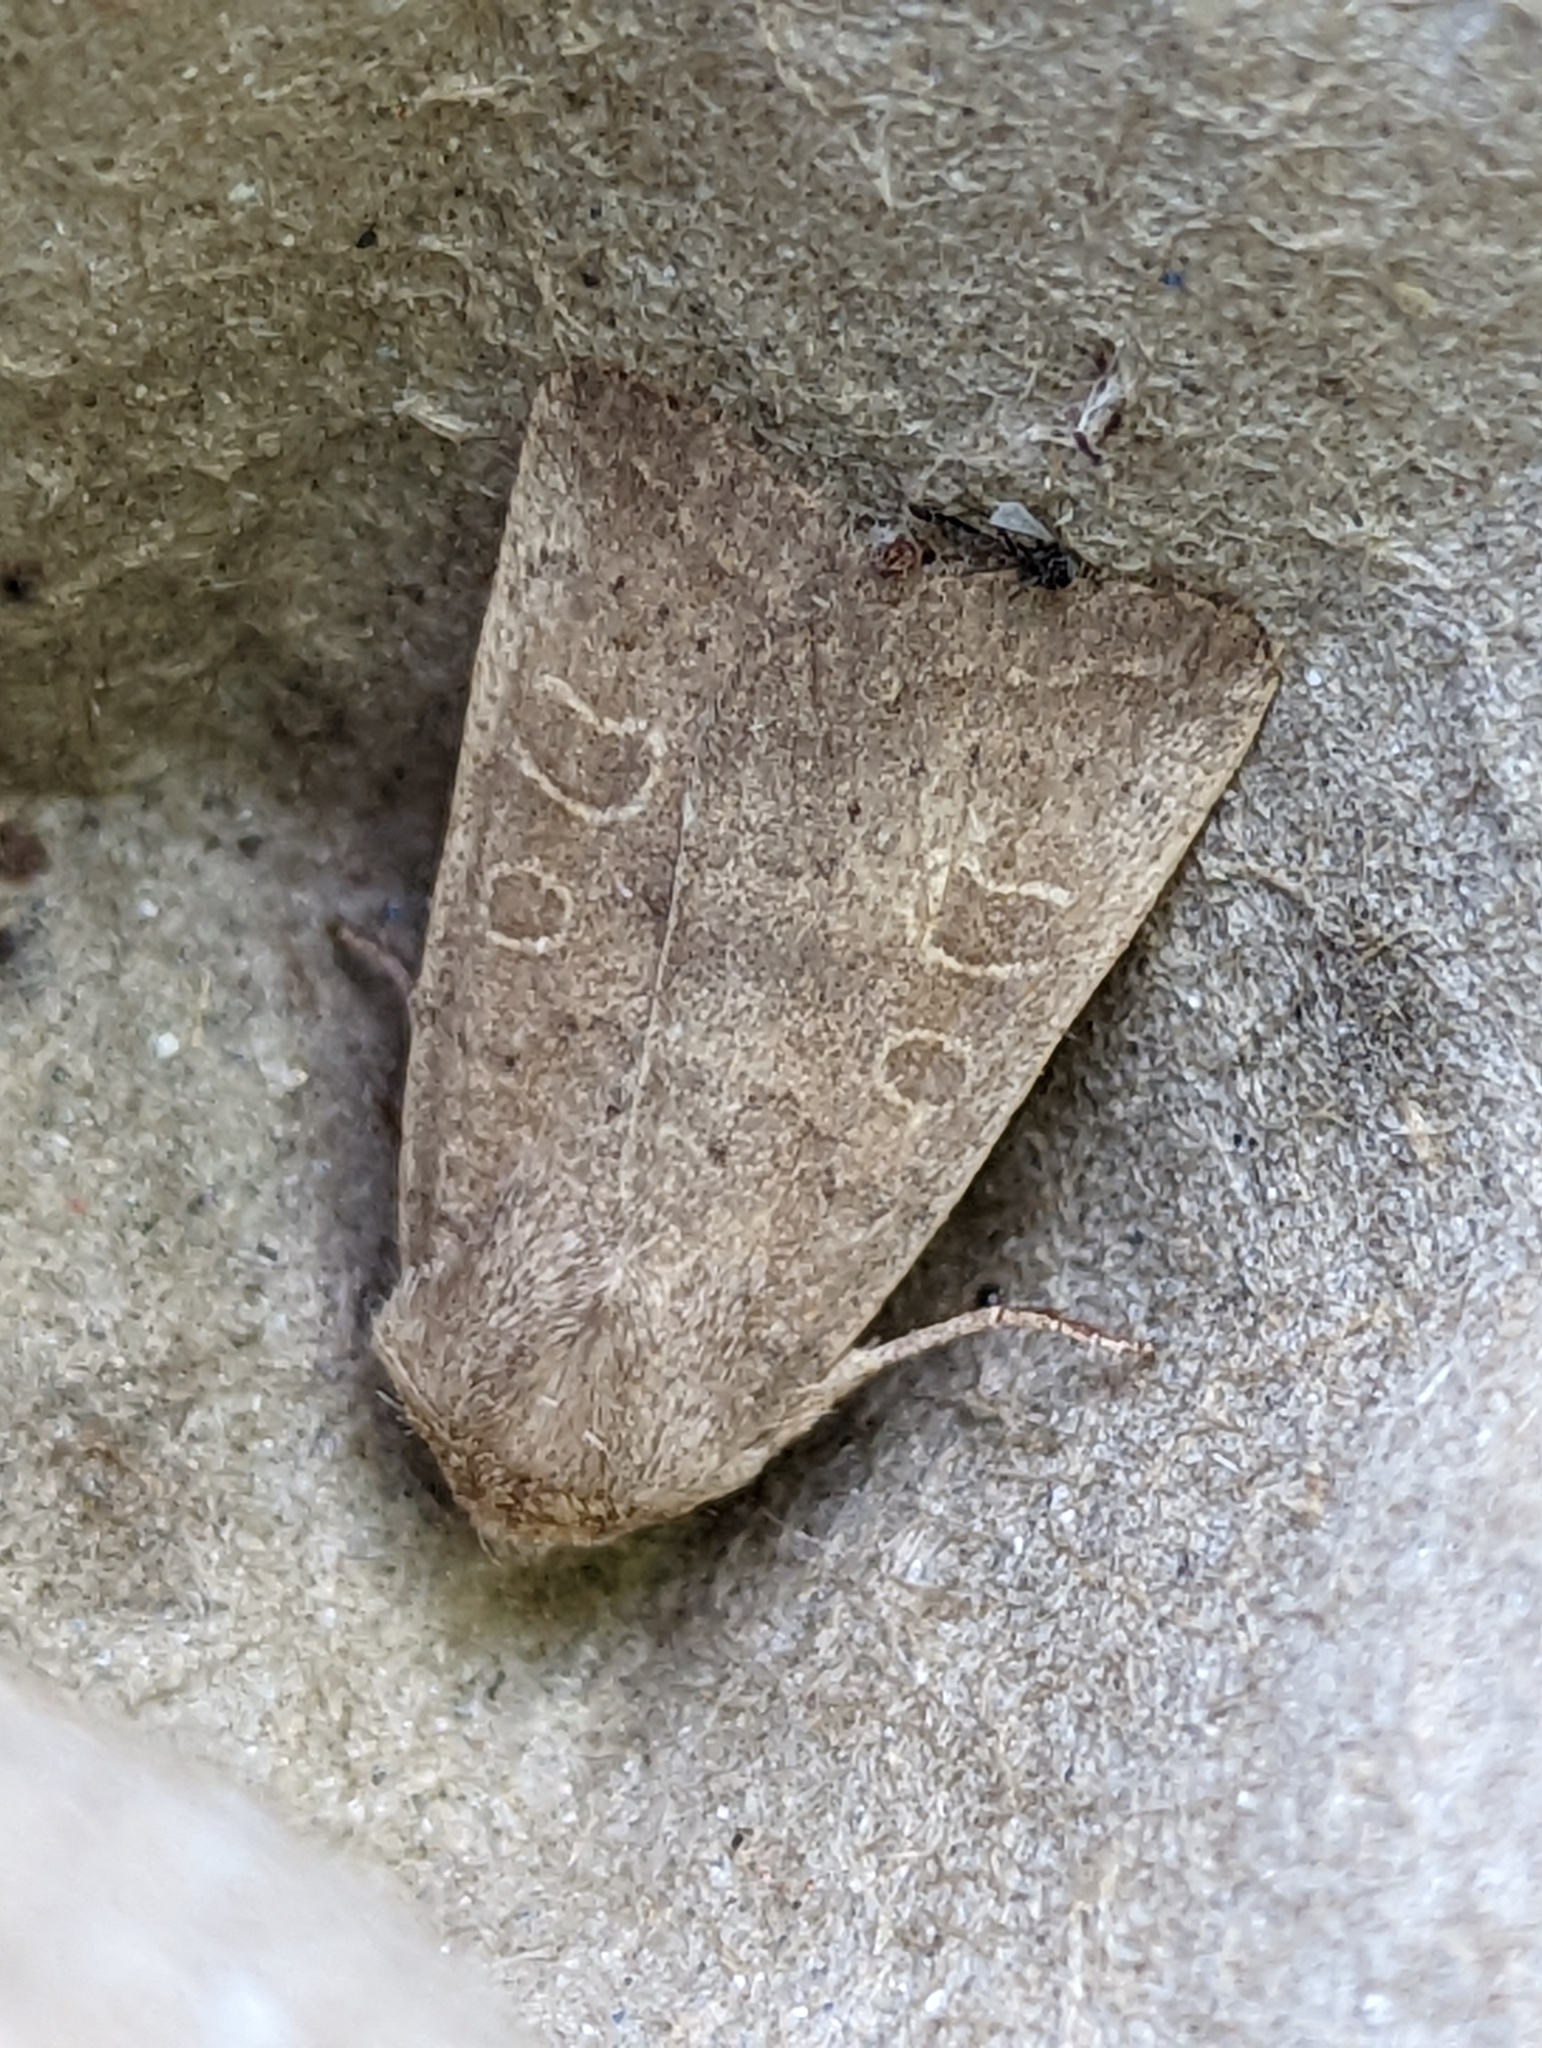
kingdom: Animalia
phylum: Arthropoda
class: Insecta
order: Lepidoptera
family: Noctuidae
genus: Hoplodrina
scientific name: Hoplodrina ambigua
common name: Vine's rustic
